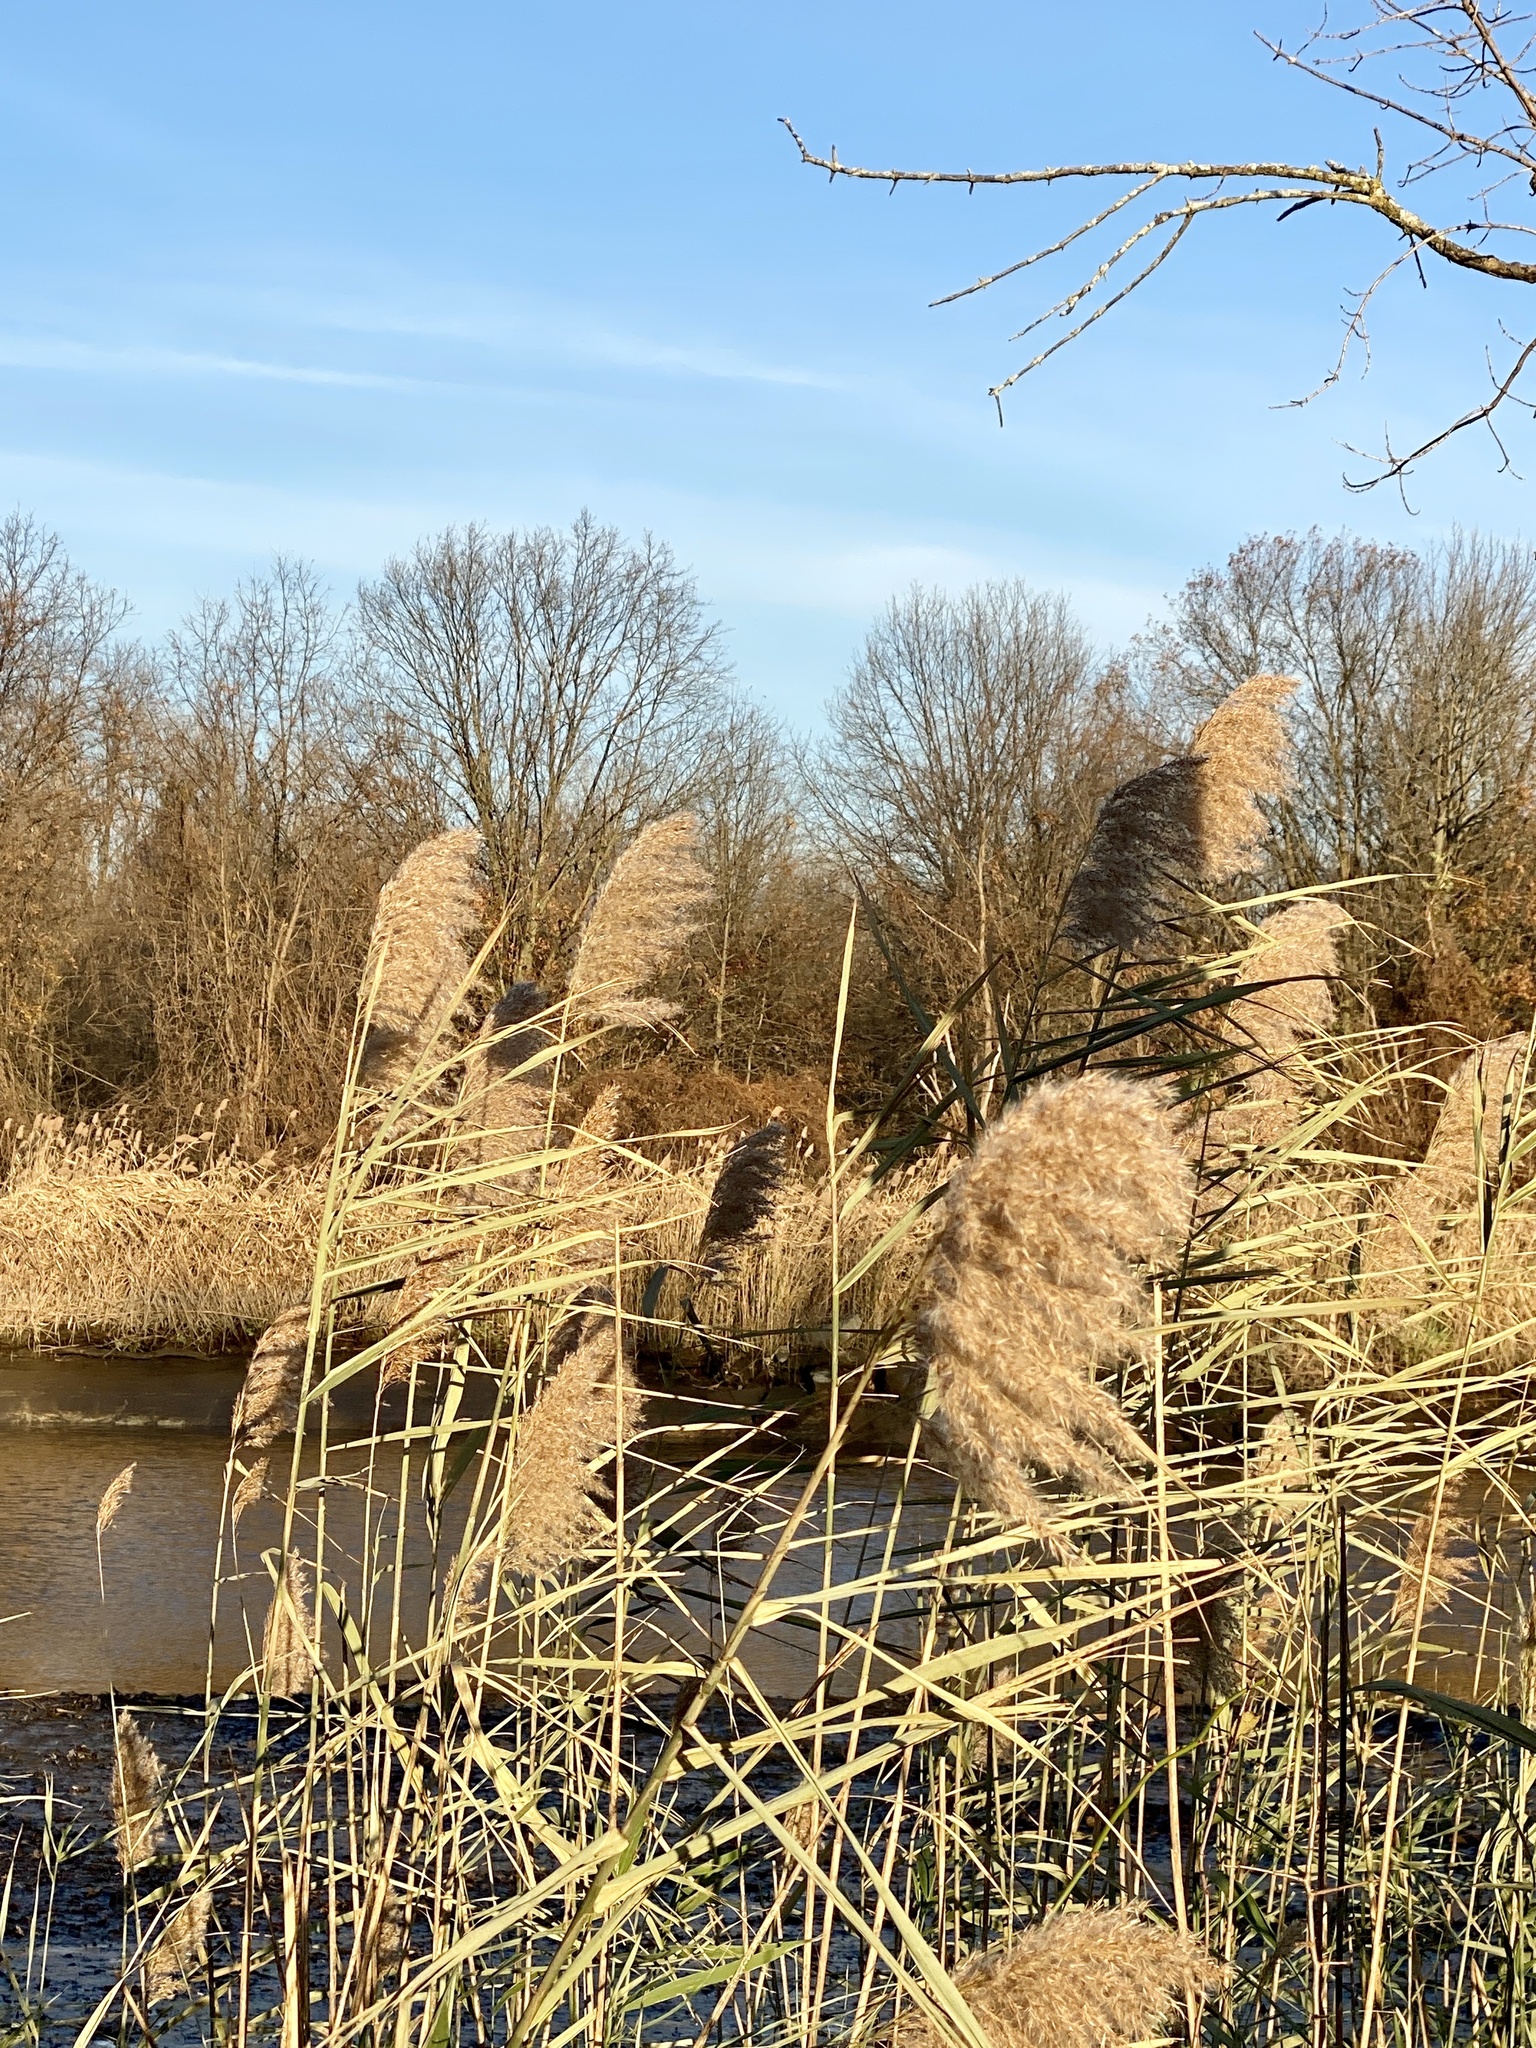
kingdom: Plantae
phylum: Tracheophyta
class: Liliopsida
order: Poales
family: Poaceae
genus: Phragmites
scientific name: Phragmites australis
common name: Common reed
